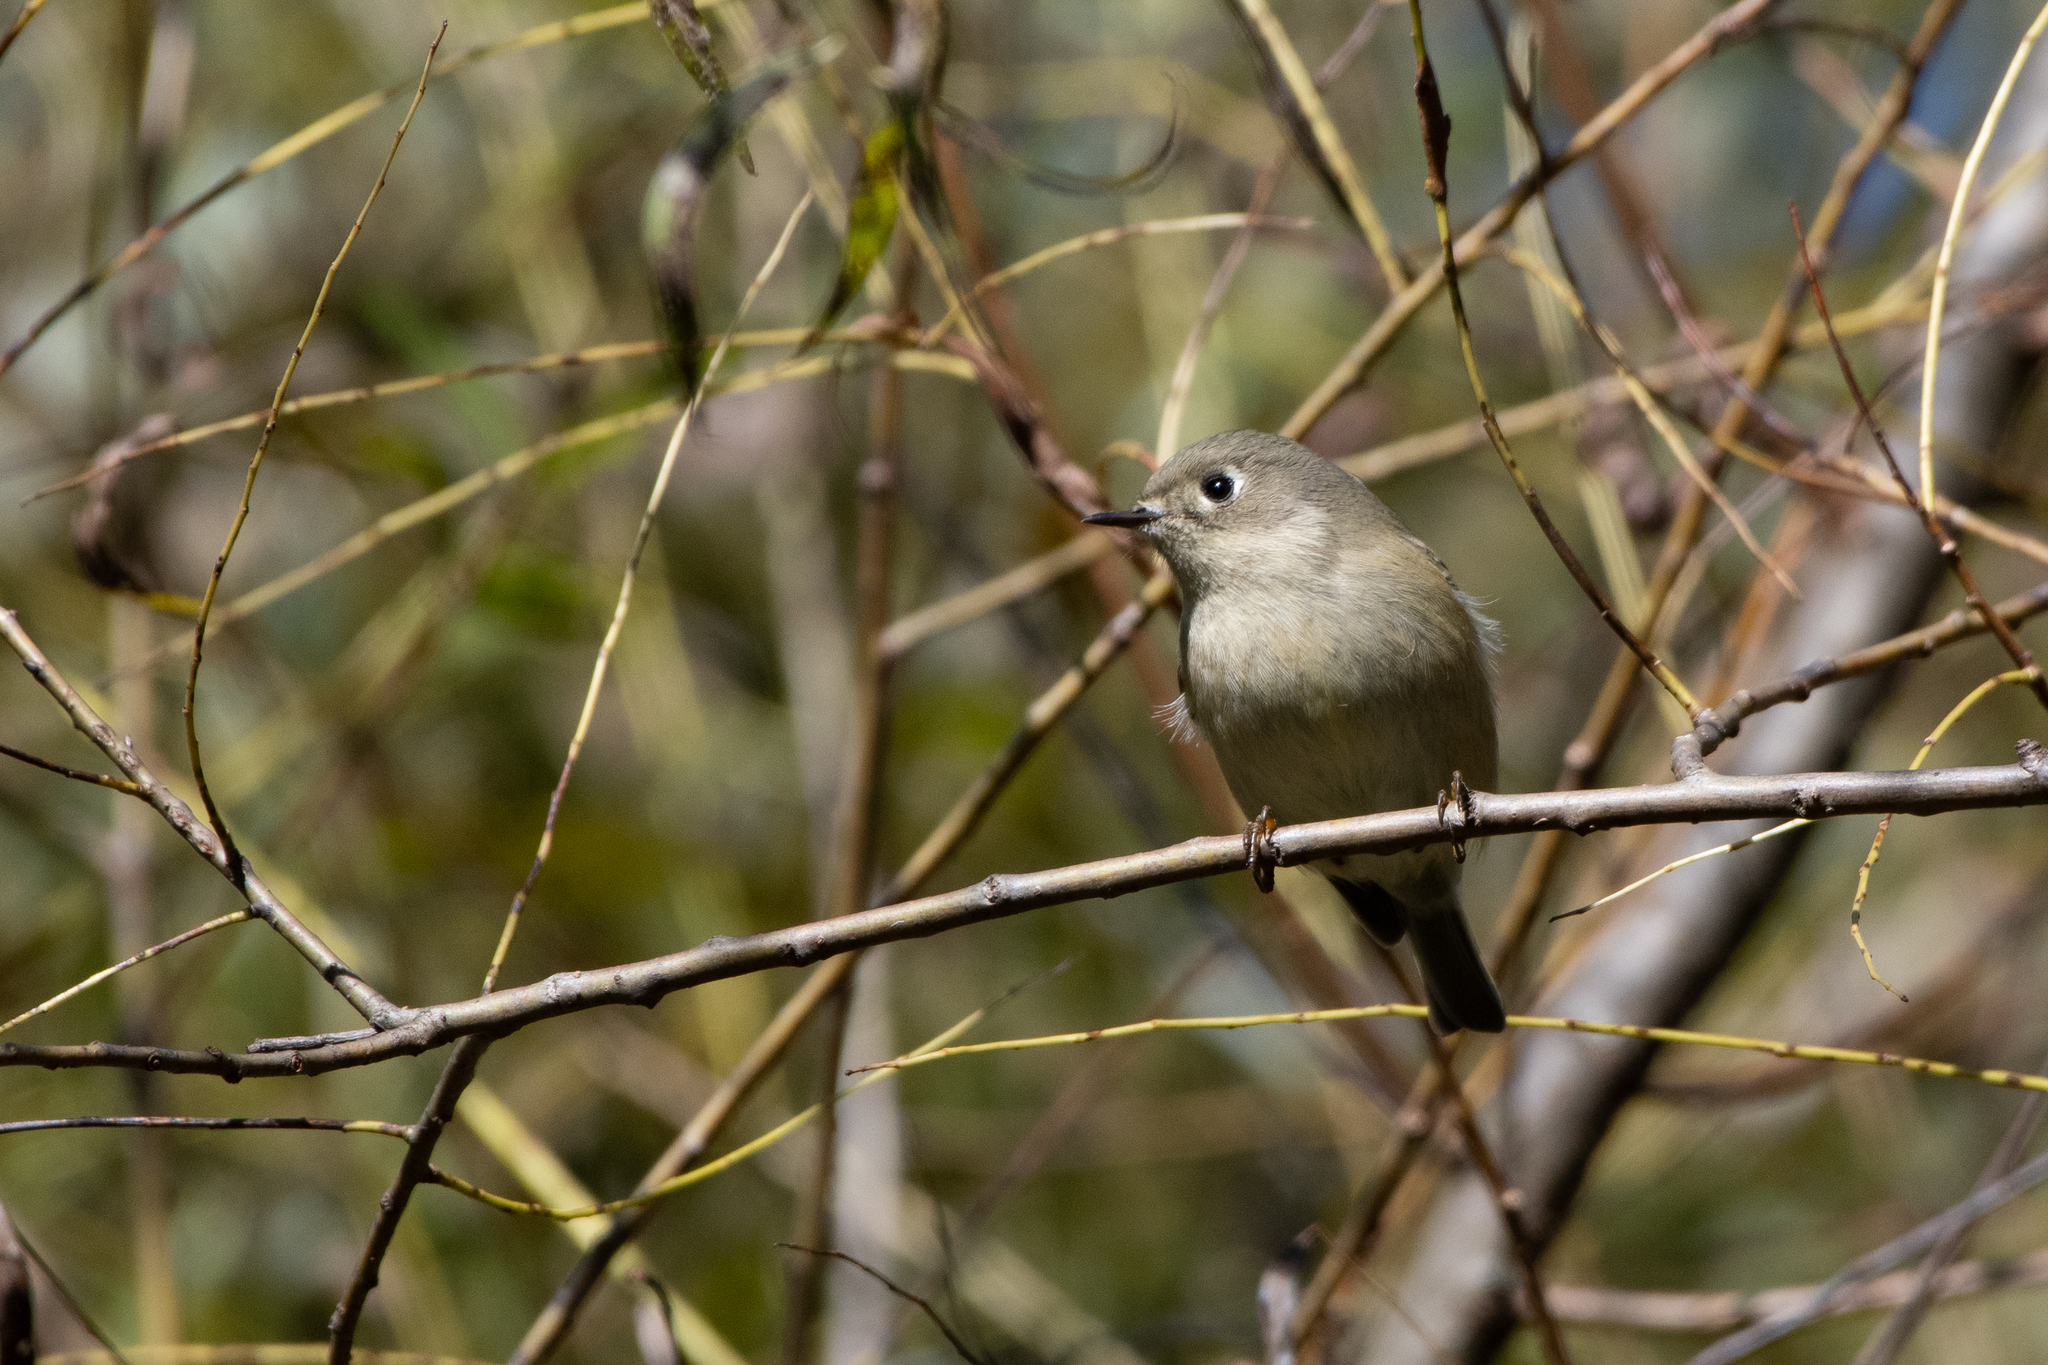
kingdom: Animalia
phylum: Chordata
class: Aves
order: Passeriformes
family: Regulidae
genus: Regulus
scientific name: Regulus calendula
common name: Ruby-crowned kinglet
